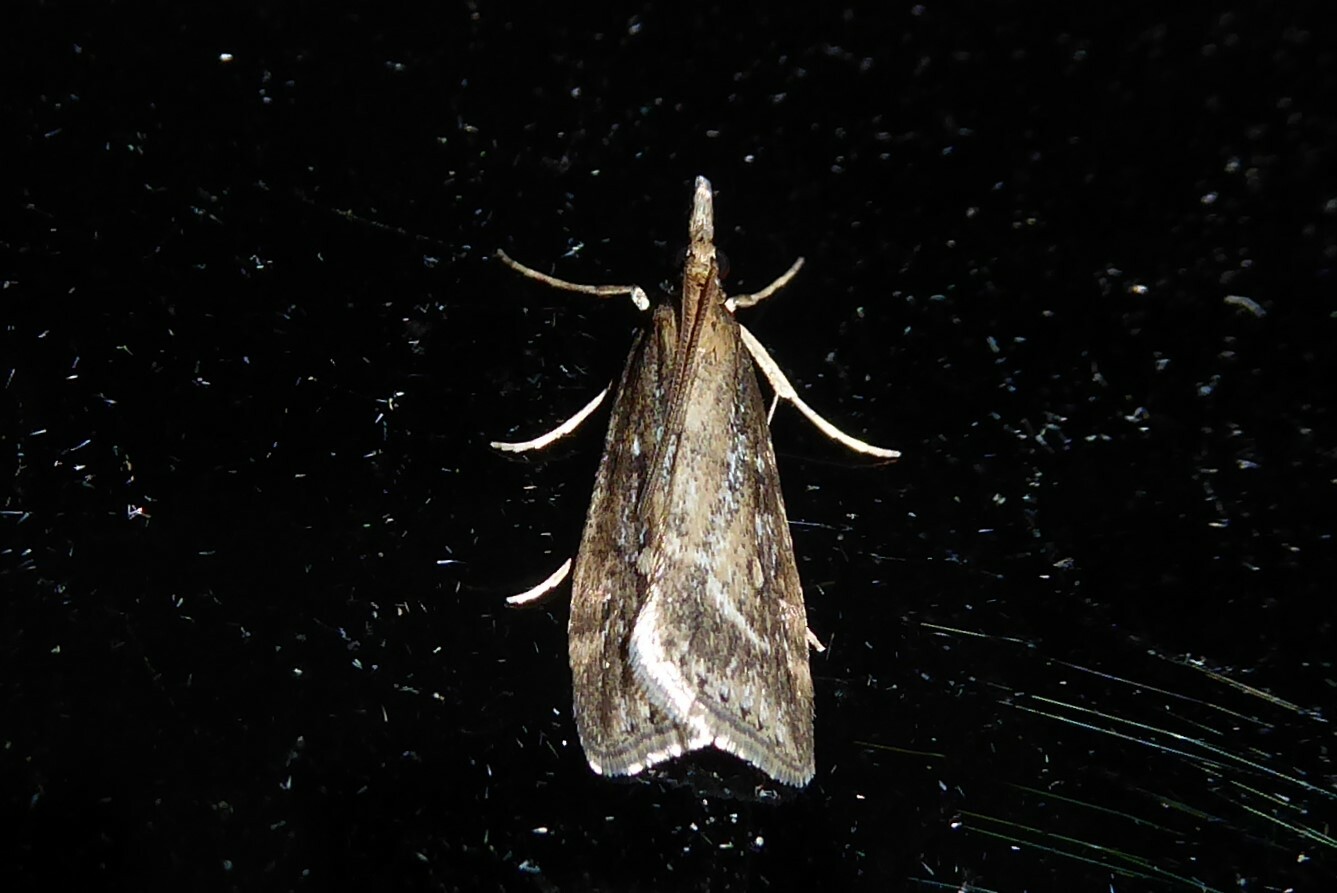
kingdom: Animalia
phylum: Arthropoda
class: Insecta
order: Lepidoptera
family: Crambidae
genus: Eudonia
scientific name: Eudonia octophora
